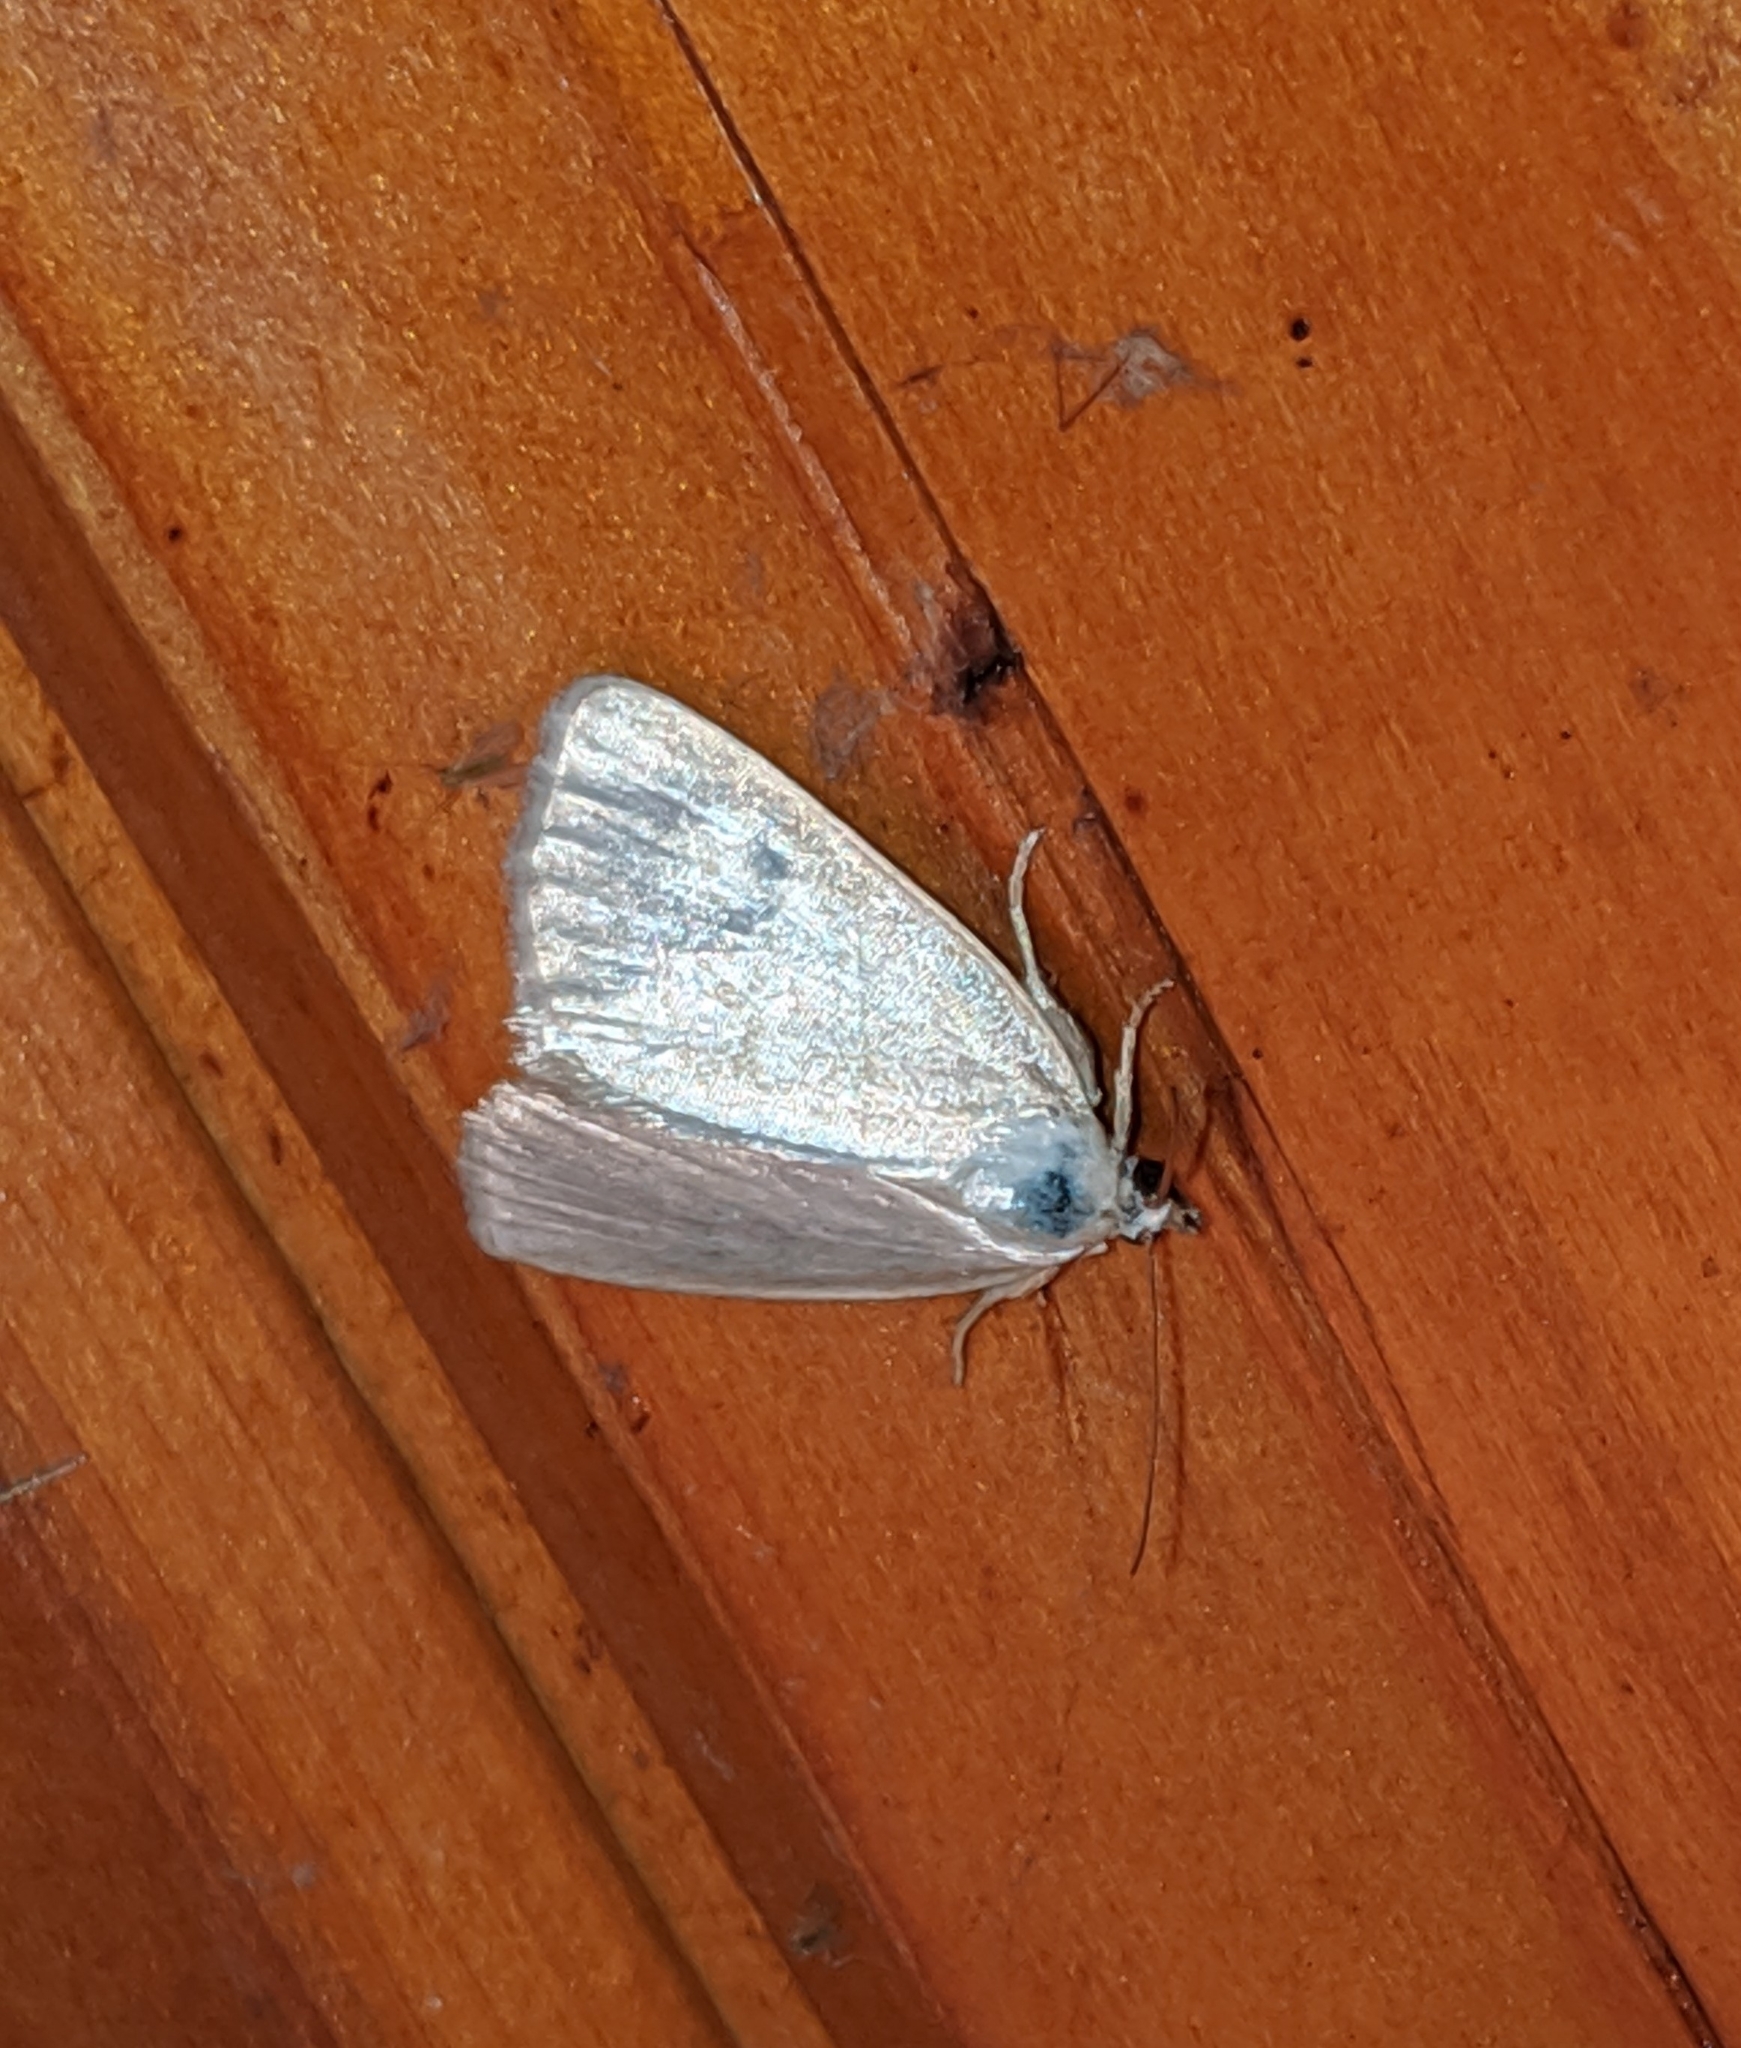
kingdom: Animalia
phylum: Arthropoda
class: Insecta
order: Lepidoptera
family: Noctuidae
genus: Protodeltote
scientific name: Protodeltote albidula
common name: Pale glyph
